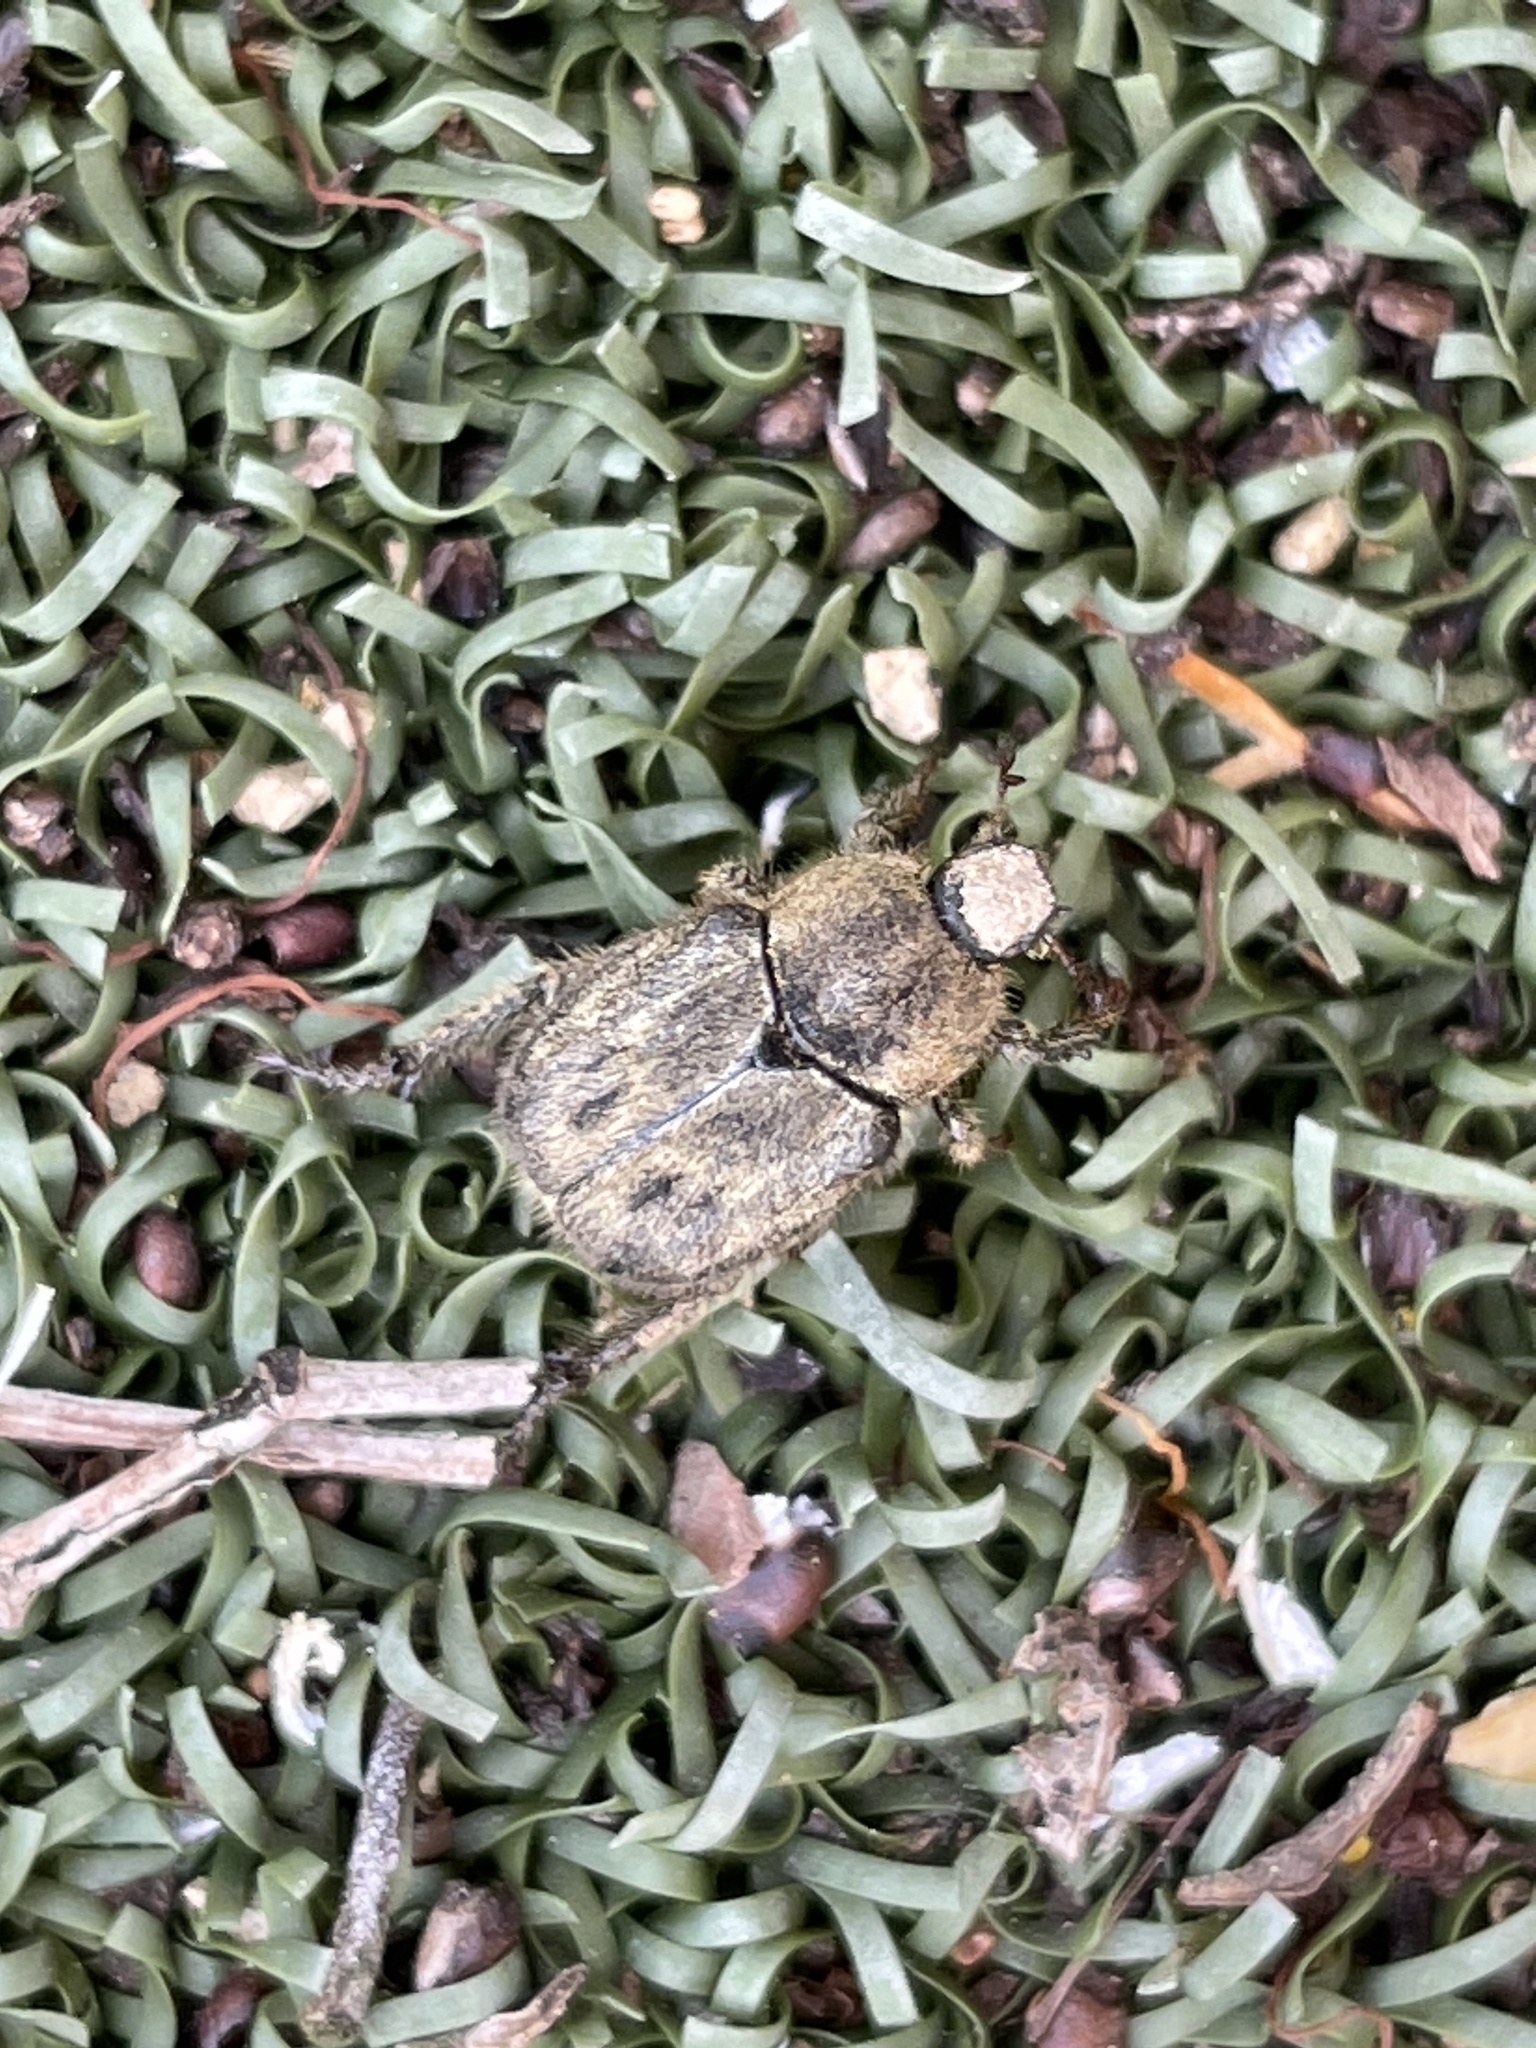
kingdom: Animalia
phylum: Arthropoda
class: Insecta
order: Coleoptera
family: Scarabaeidae
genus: Hoplia
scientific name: Hoplia callipyge
